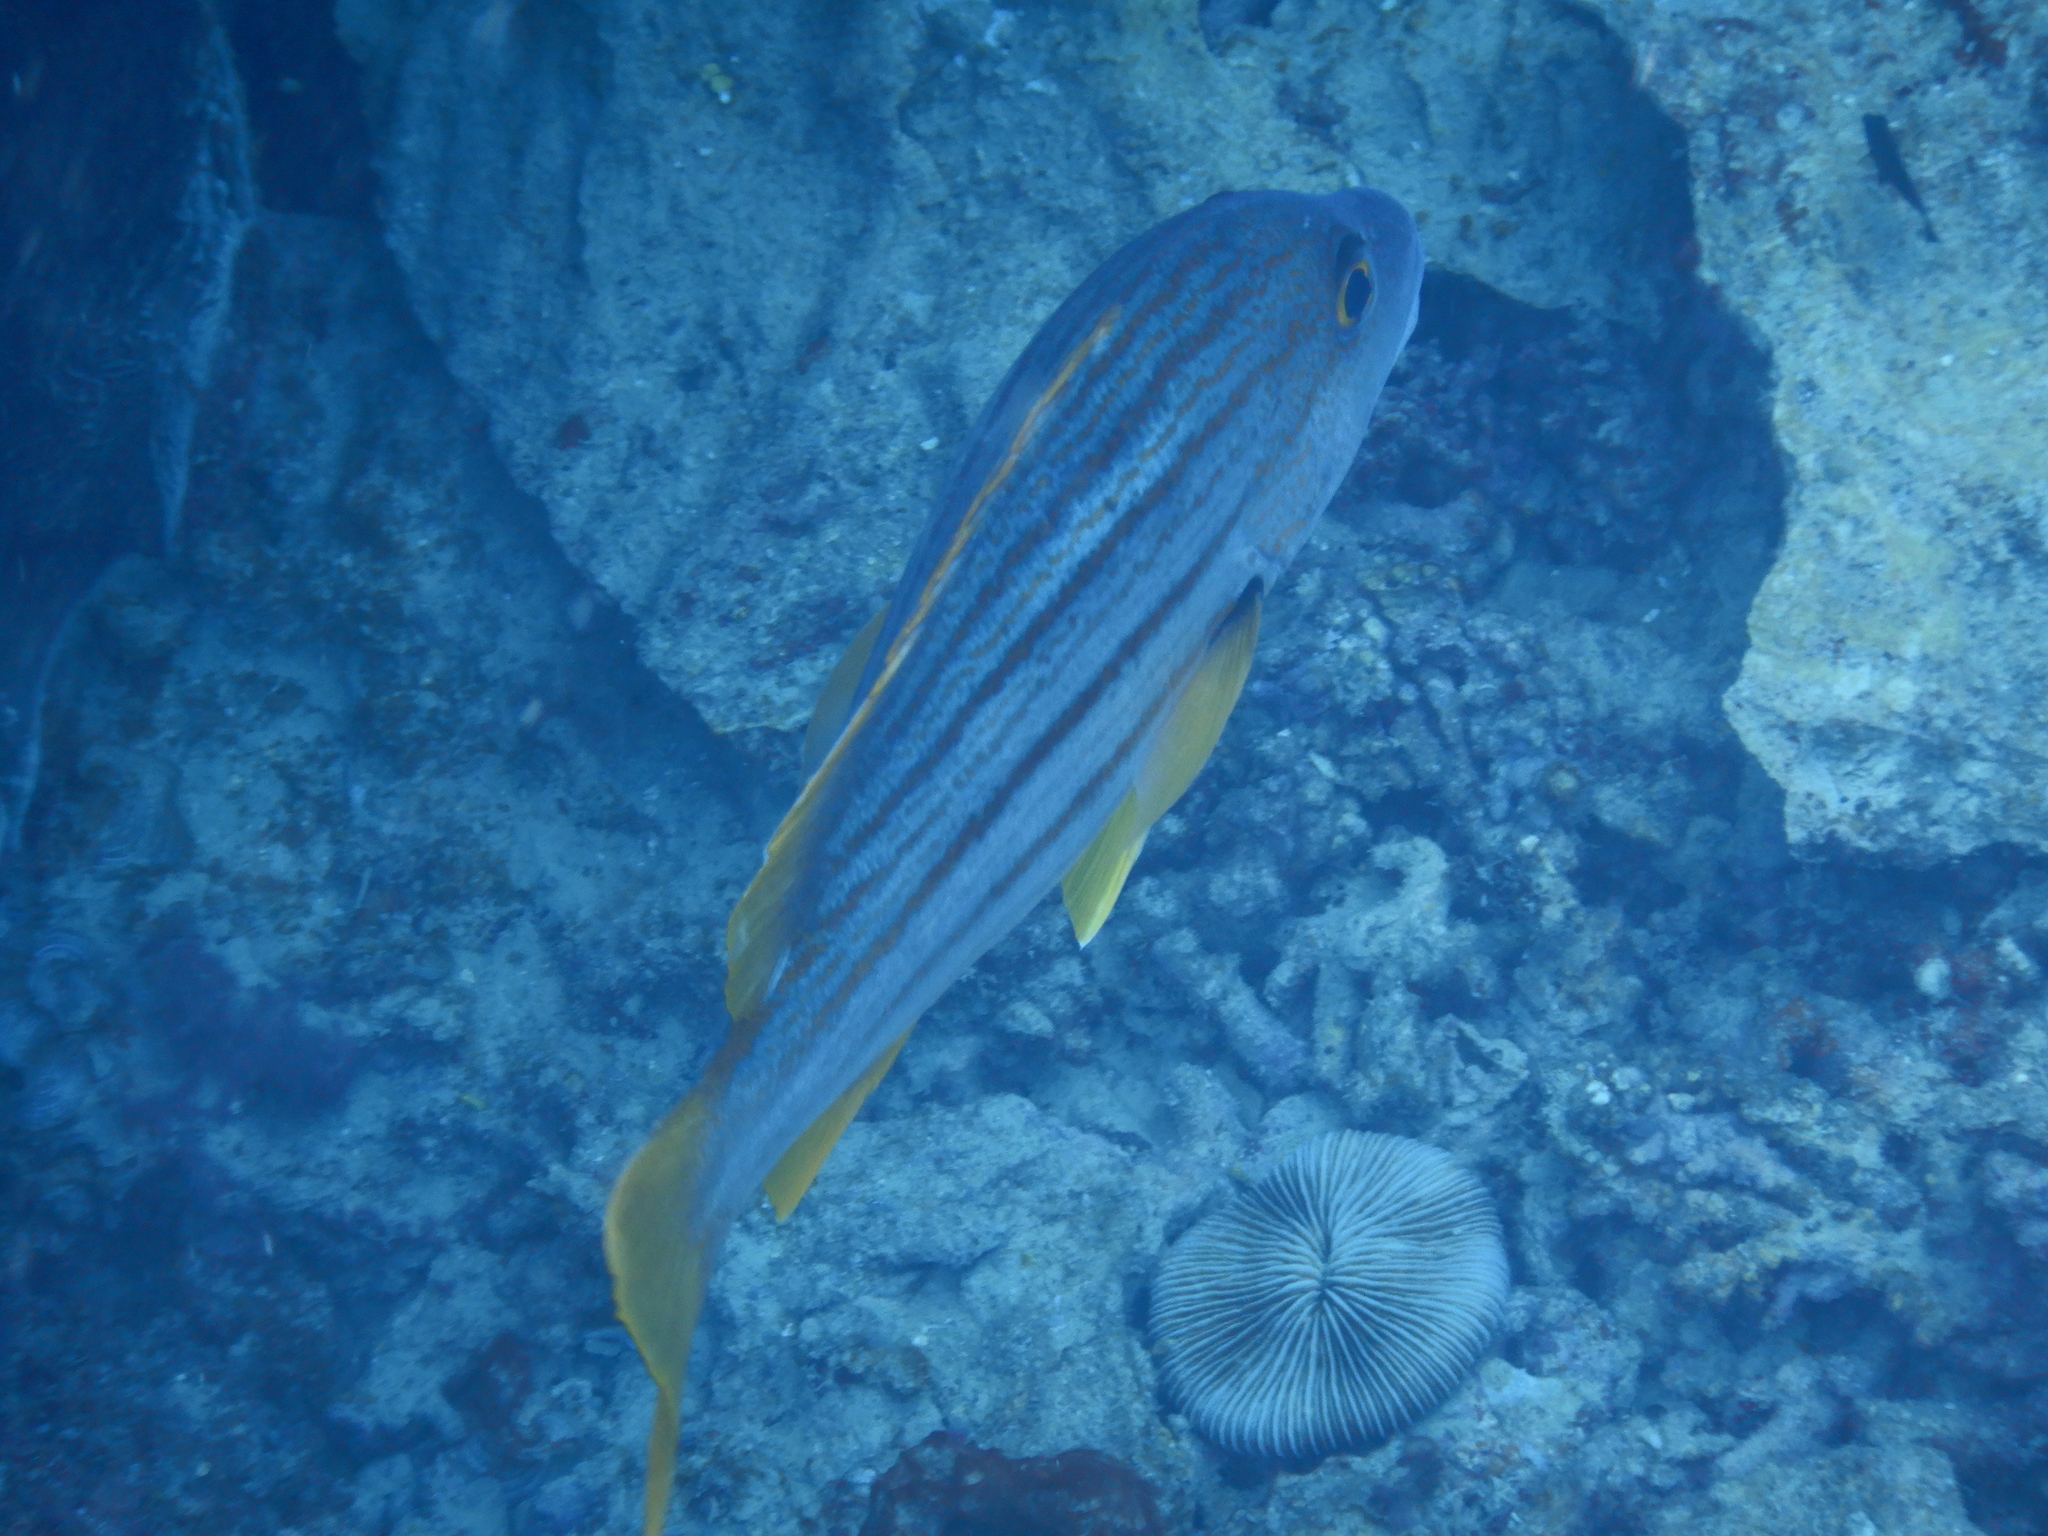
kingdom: Animalia
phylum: Chordata
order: Perciformes
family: Lutjanidae
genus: Lutjanus
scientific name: Lutjanus carponotatus
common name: Spanish flag
